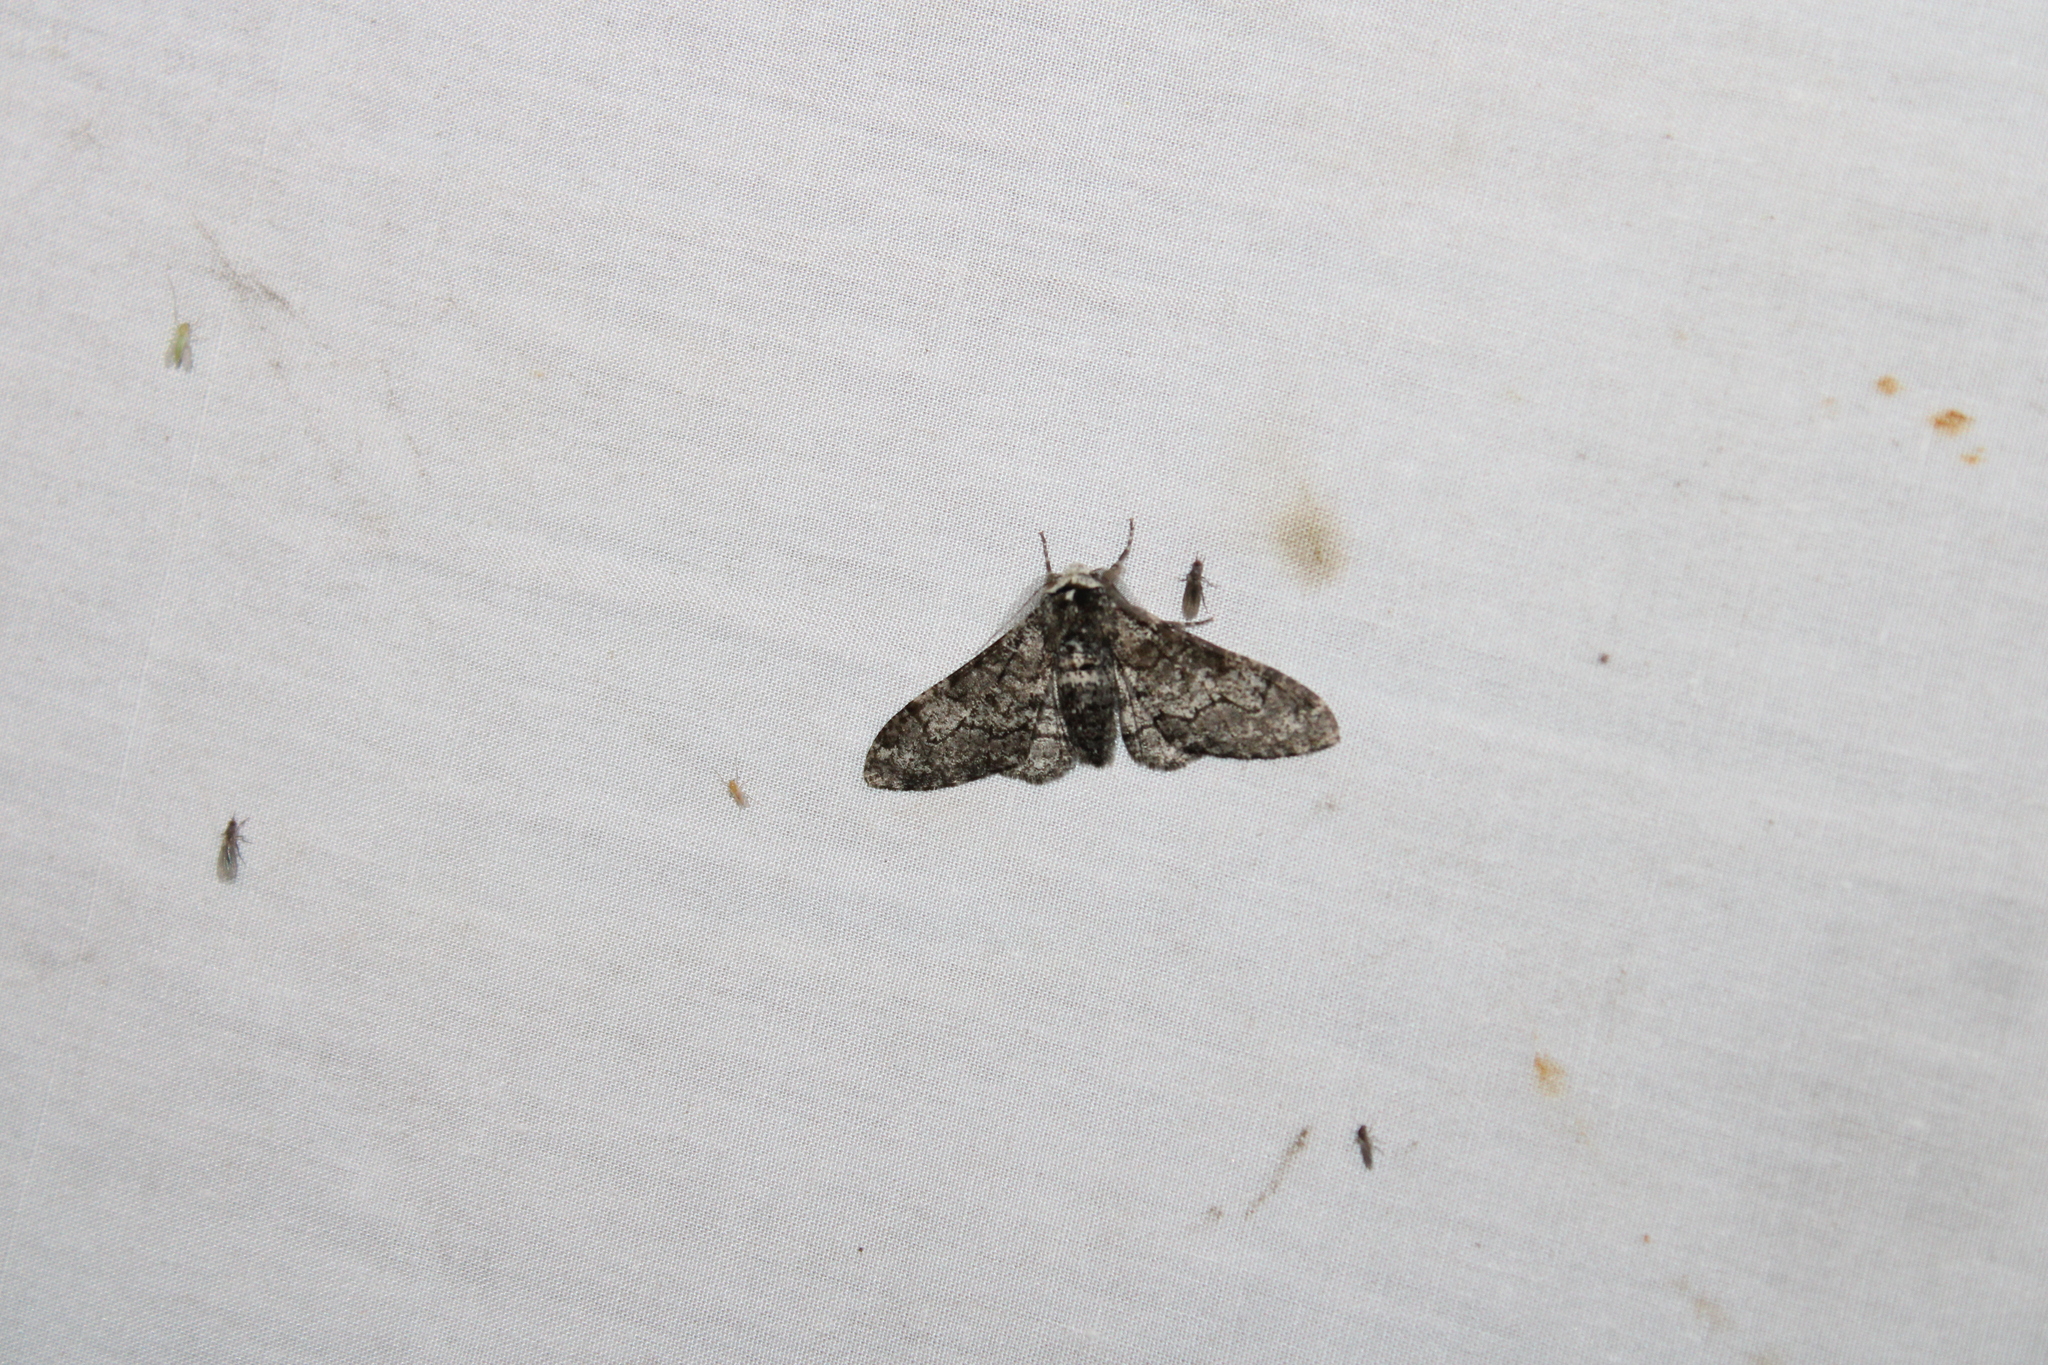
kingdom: Animalia
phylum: Arthropoda
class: Insecta
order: Lepidoptera
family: Geometridae
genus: Biston
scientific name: Biston betularia
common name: Peppered moth
